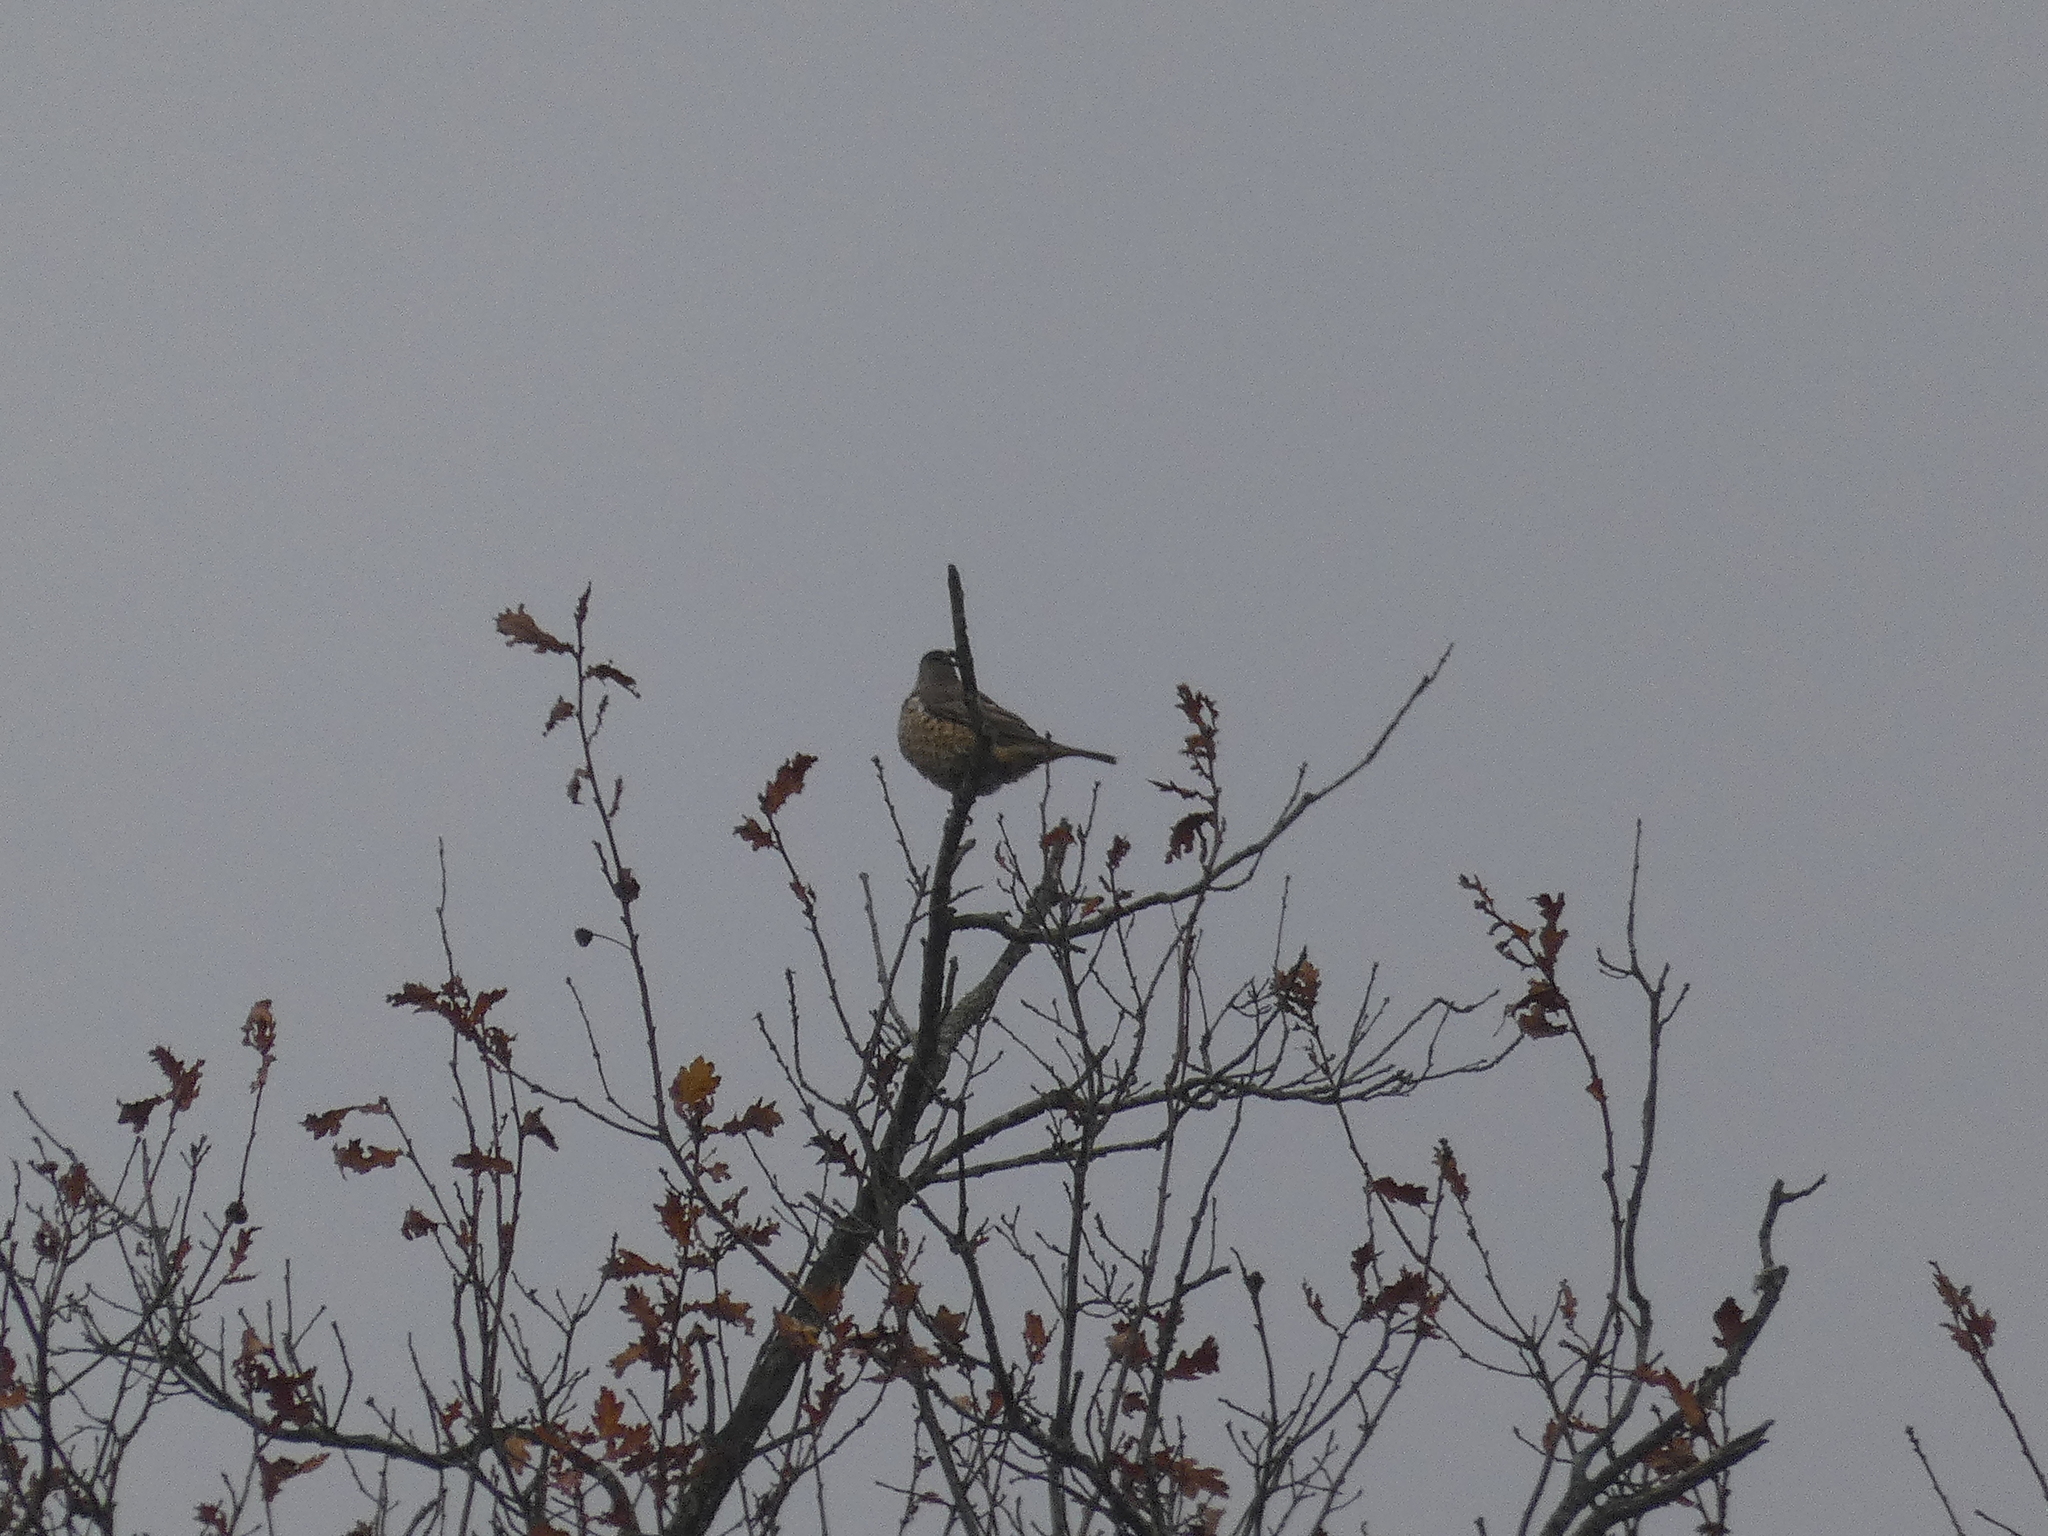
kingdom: Animalia
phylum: Chordata
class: Aves
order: Passeriformes
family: Turdidae
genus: Turdus
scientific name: Turdus viscivorus
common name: Mistle thrush
